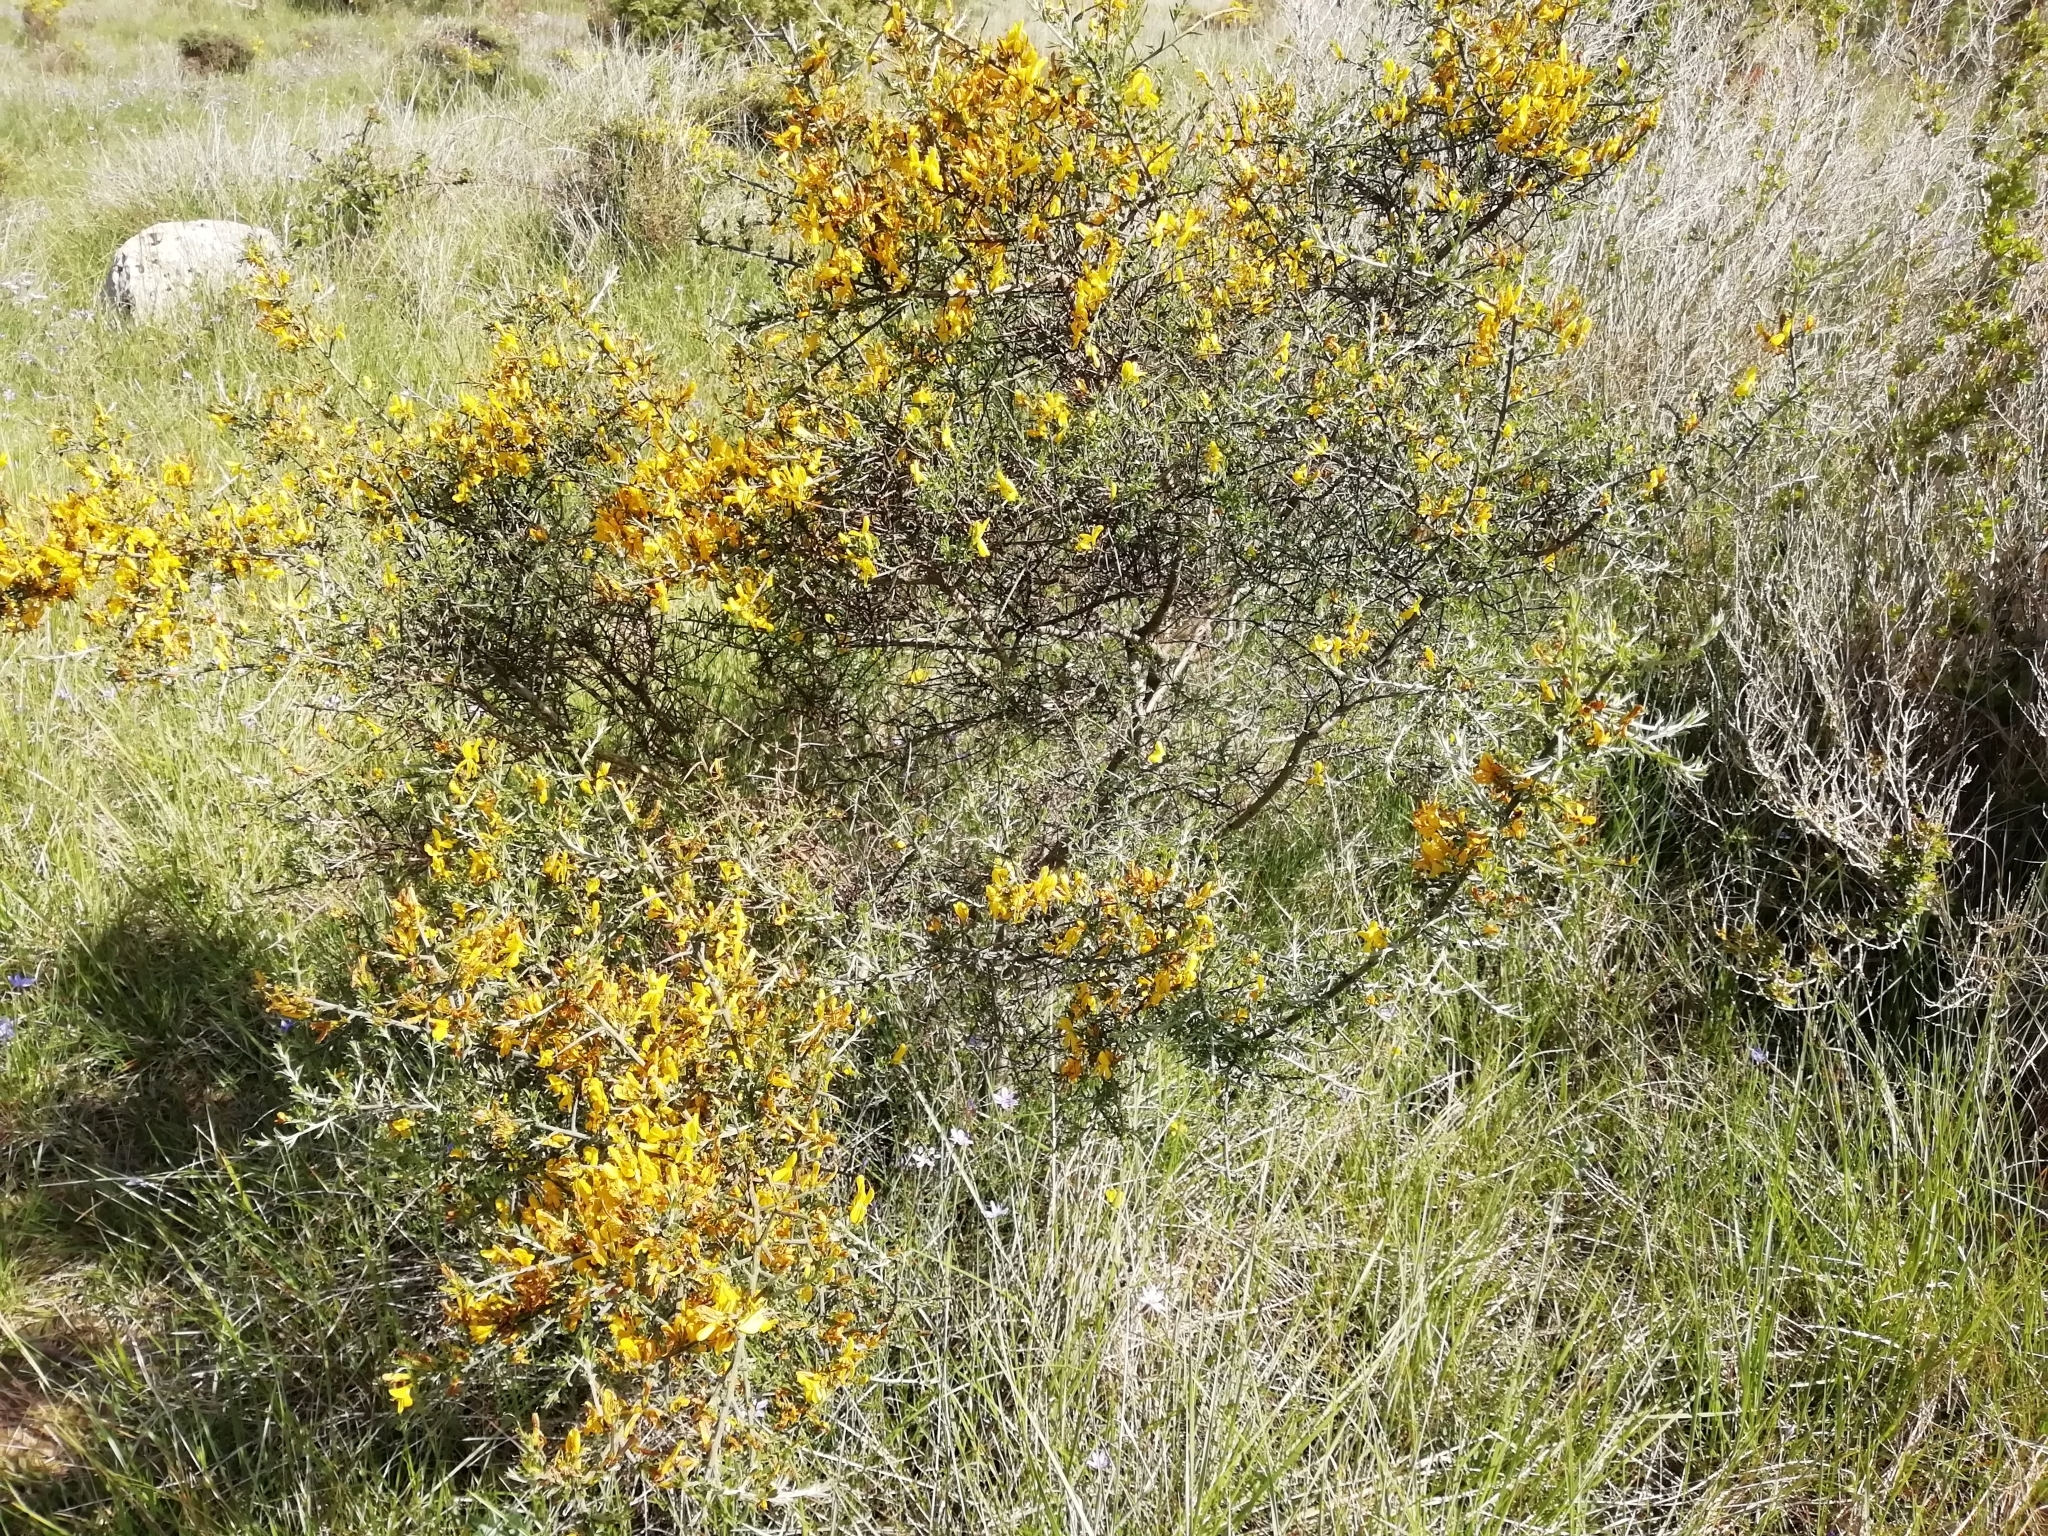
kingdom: Plantae
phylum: Tracheophyta
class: Magnoliopsida
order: Fabales
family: Fabaceae
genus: Genista
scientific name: Genista scorpius
